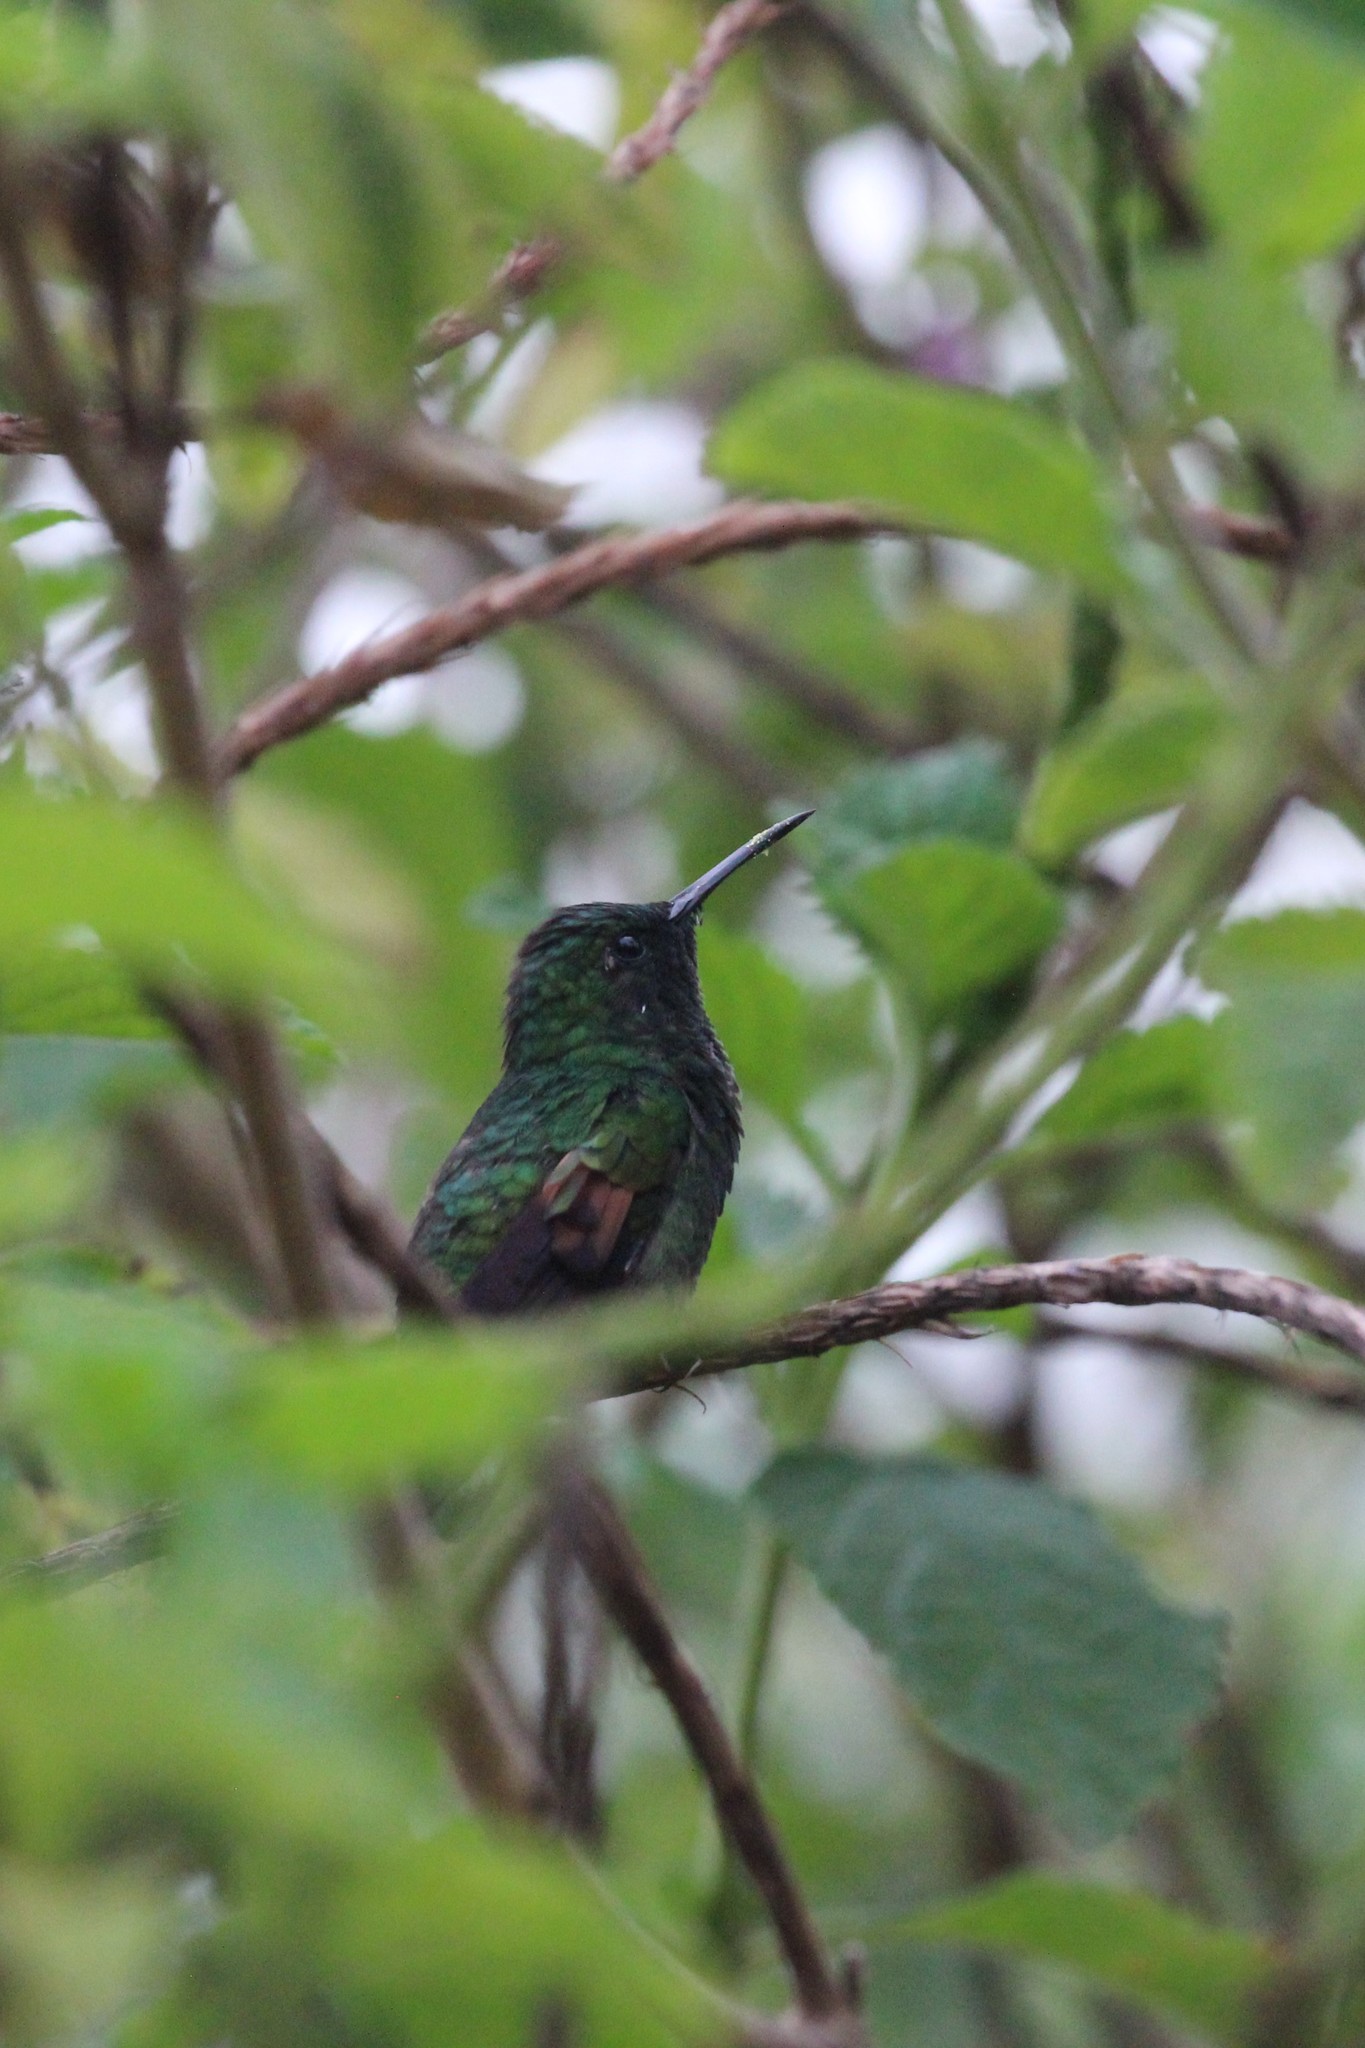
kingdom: Animalia
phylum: Chordata
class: Aves
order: Apodiformes
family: Trochilidae
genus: Eupherusa
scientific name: Eupherusa eximia
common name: Stripe-tailed hummingbird
